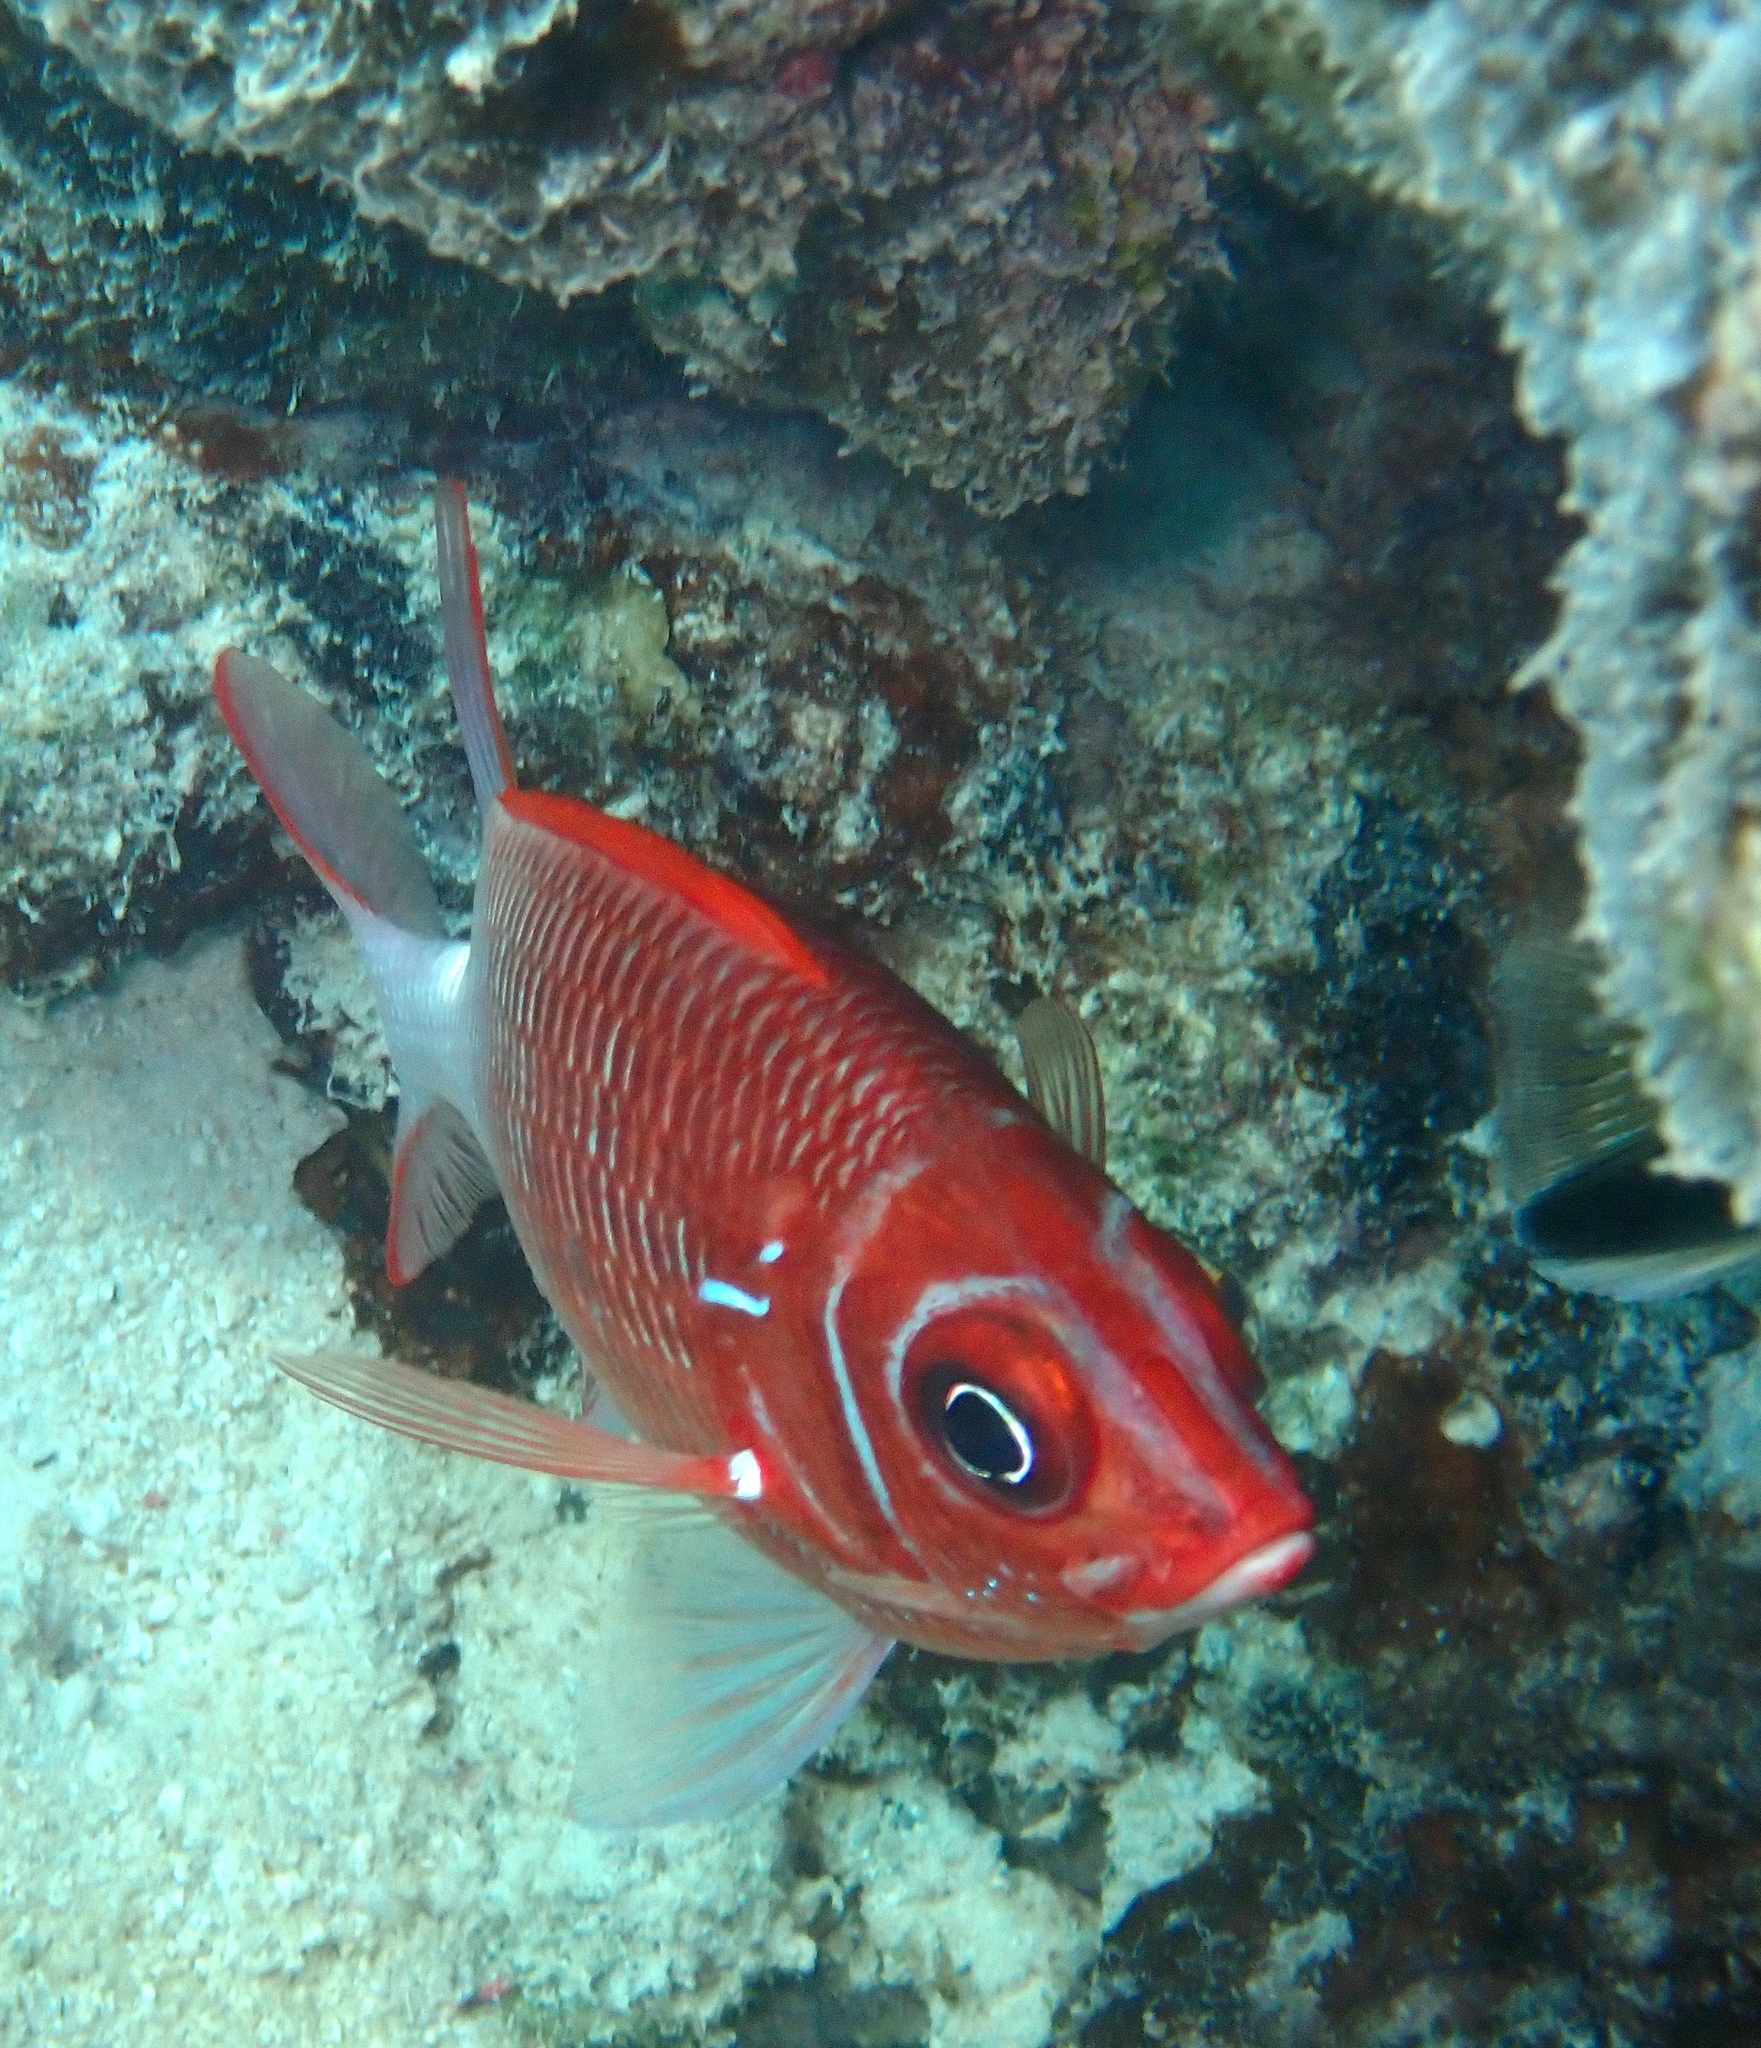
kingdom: Animalia
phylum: Chordata
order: Beryciformes
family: Holocentridae
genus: Sargocentron
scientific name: Sargocentron caudimaculatum
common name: Fanfin soldier
